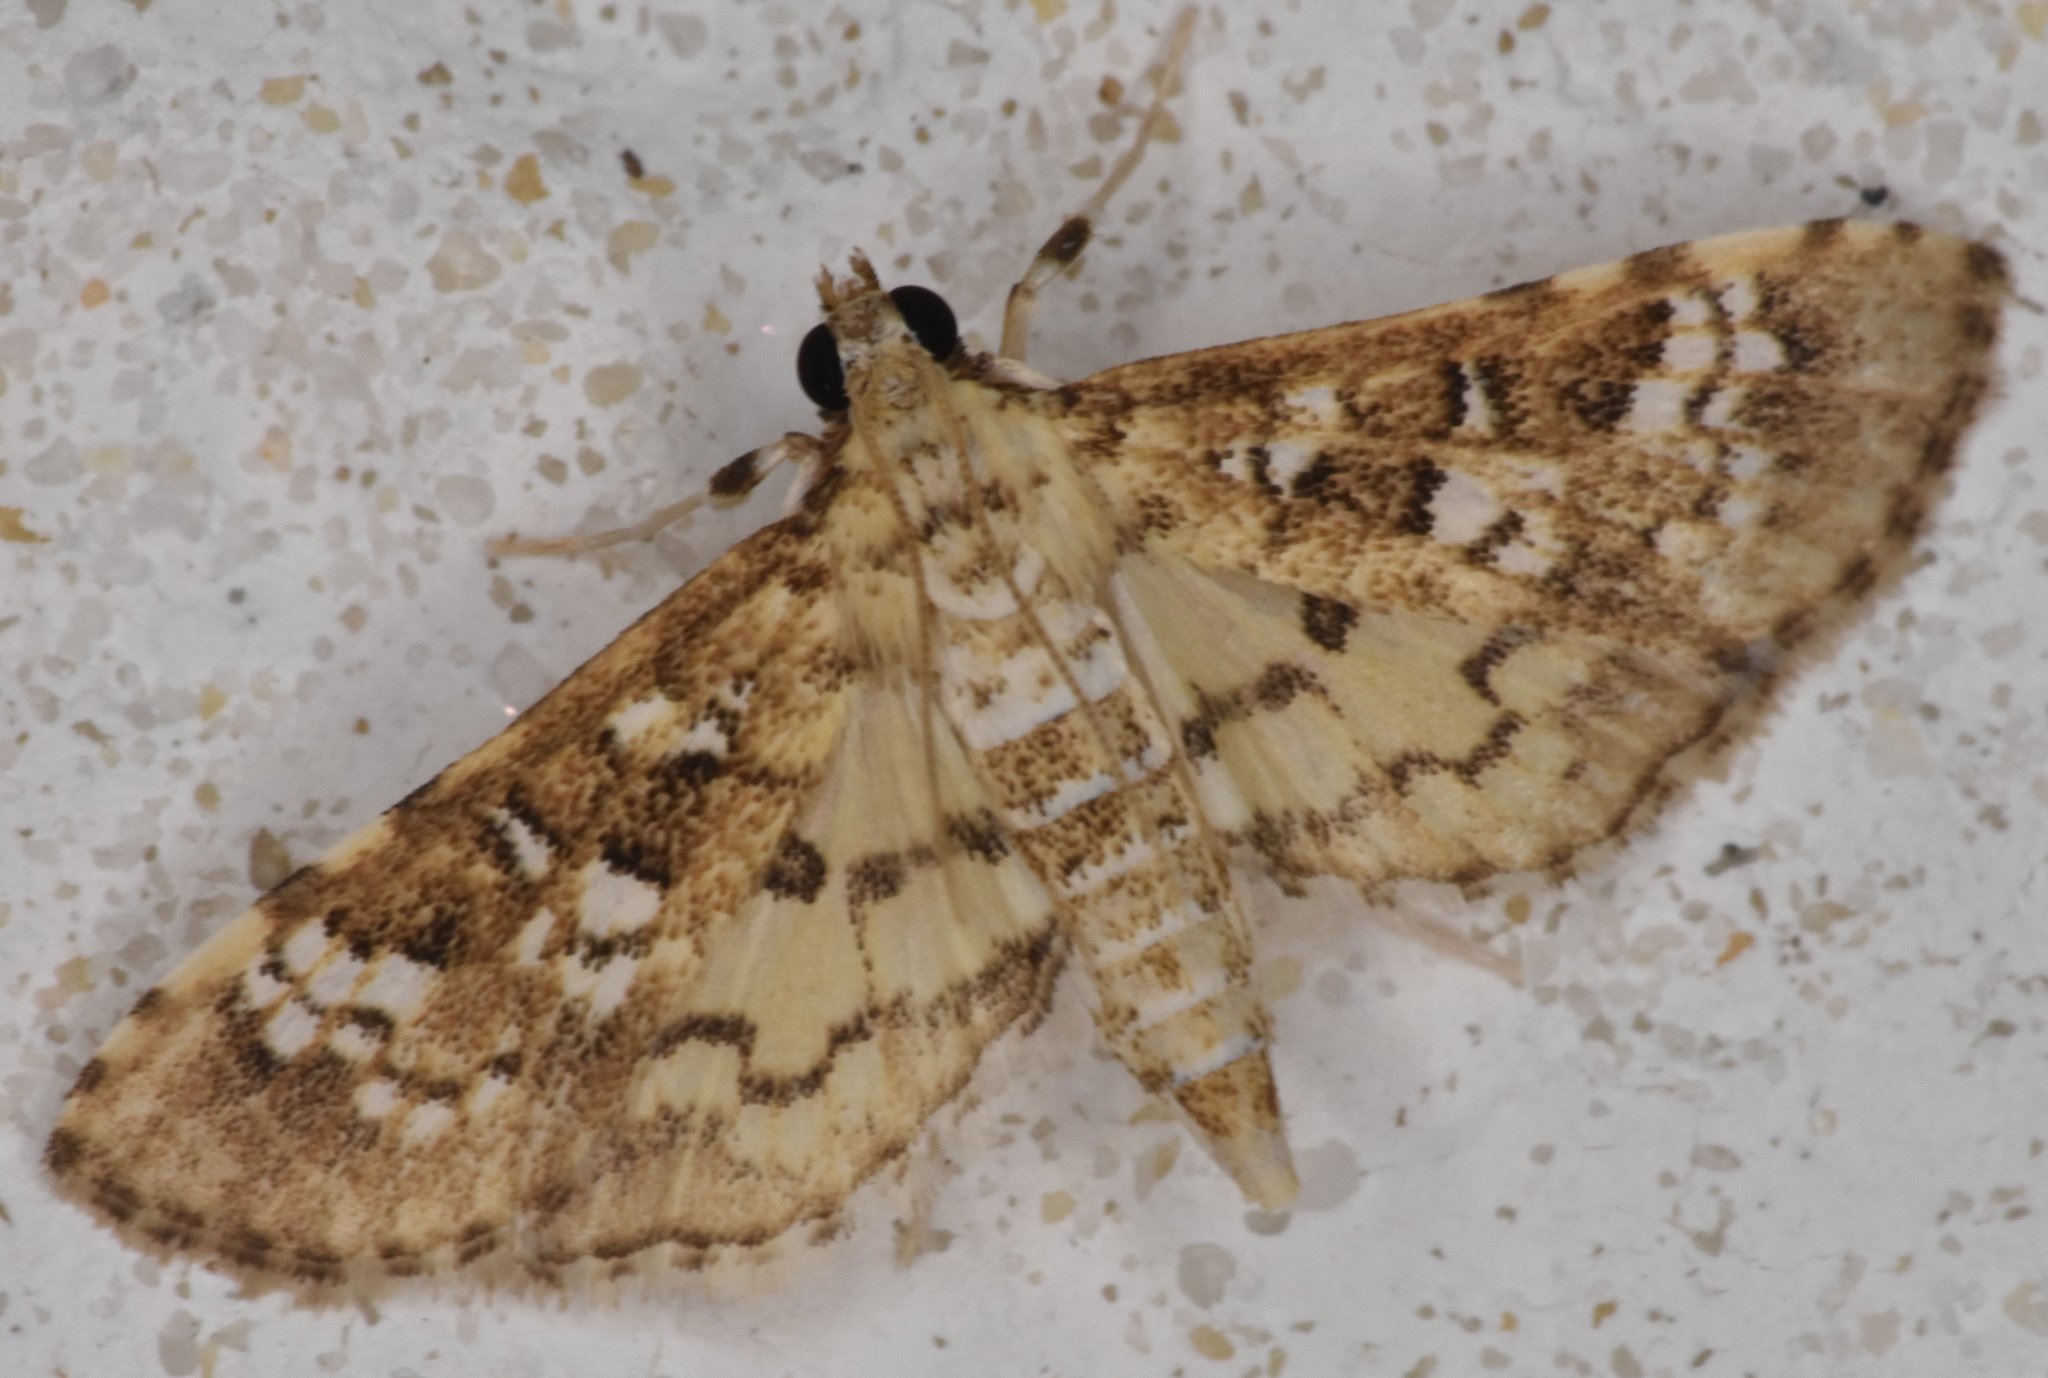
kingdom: Animalia
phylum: Arthropoda
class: Insecta
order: Lepidoptera
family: Crambidae
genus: Samea
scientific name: Samea multiplicalis
